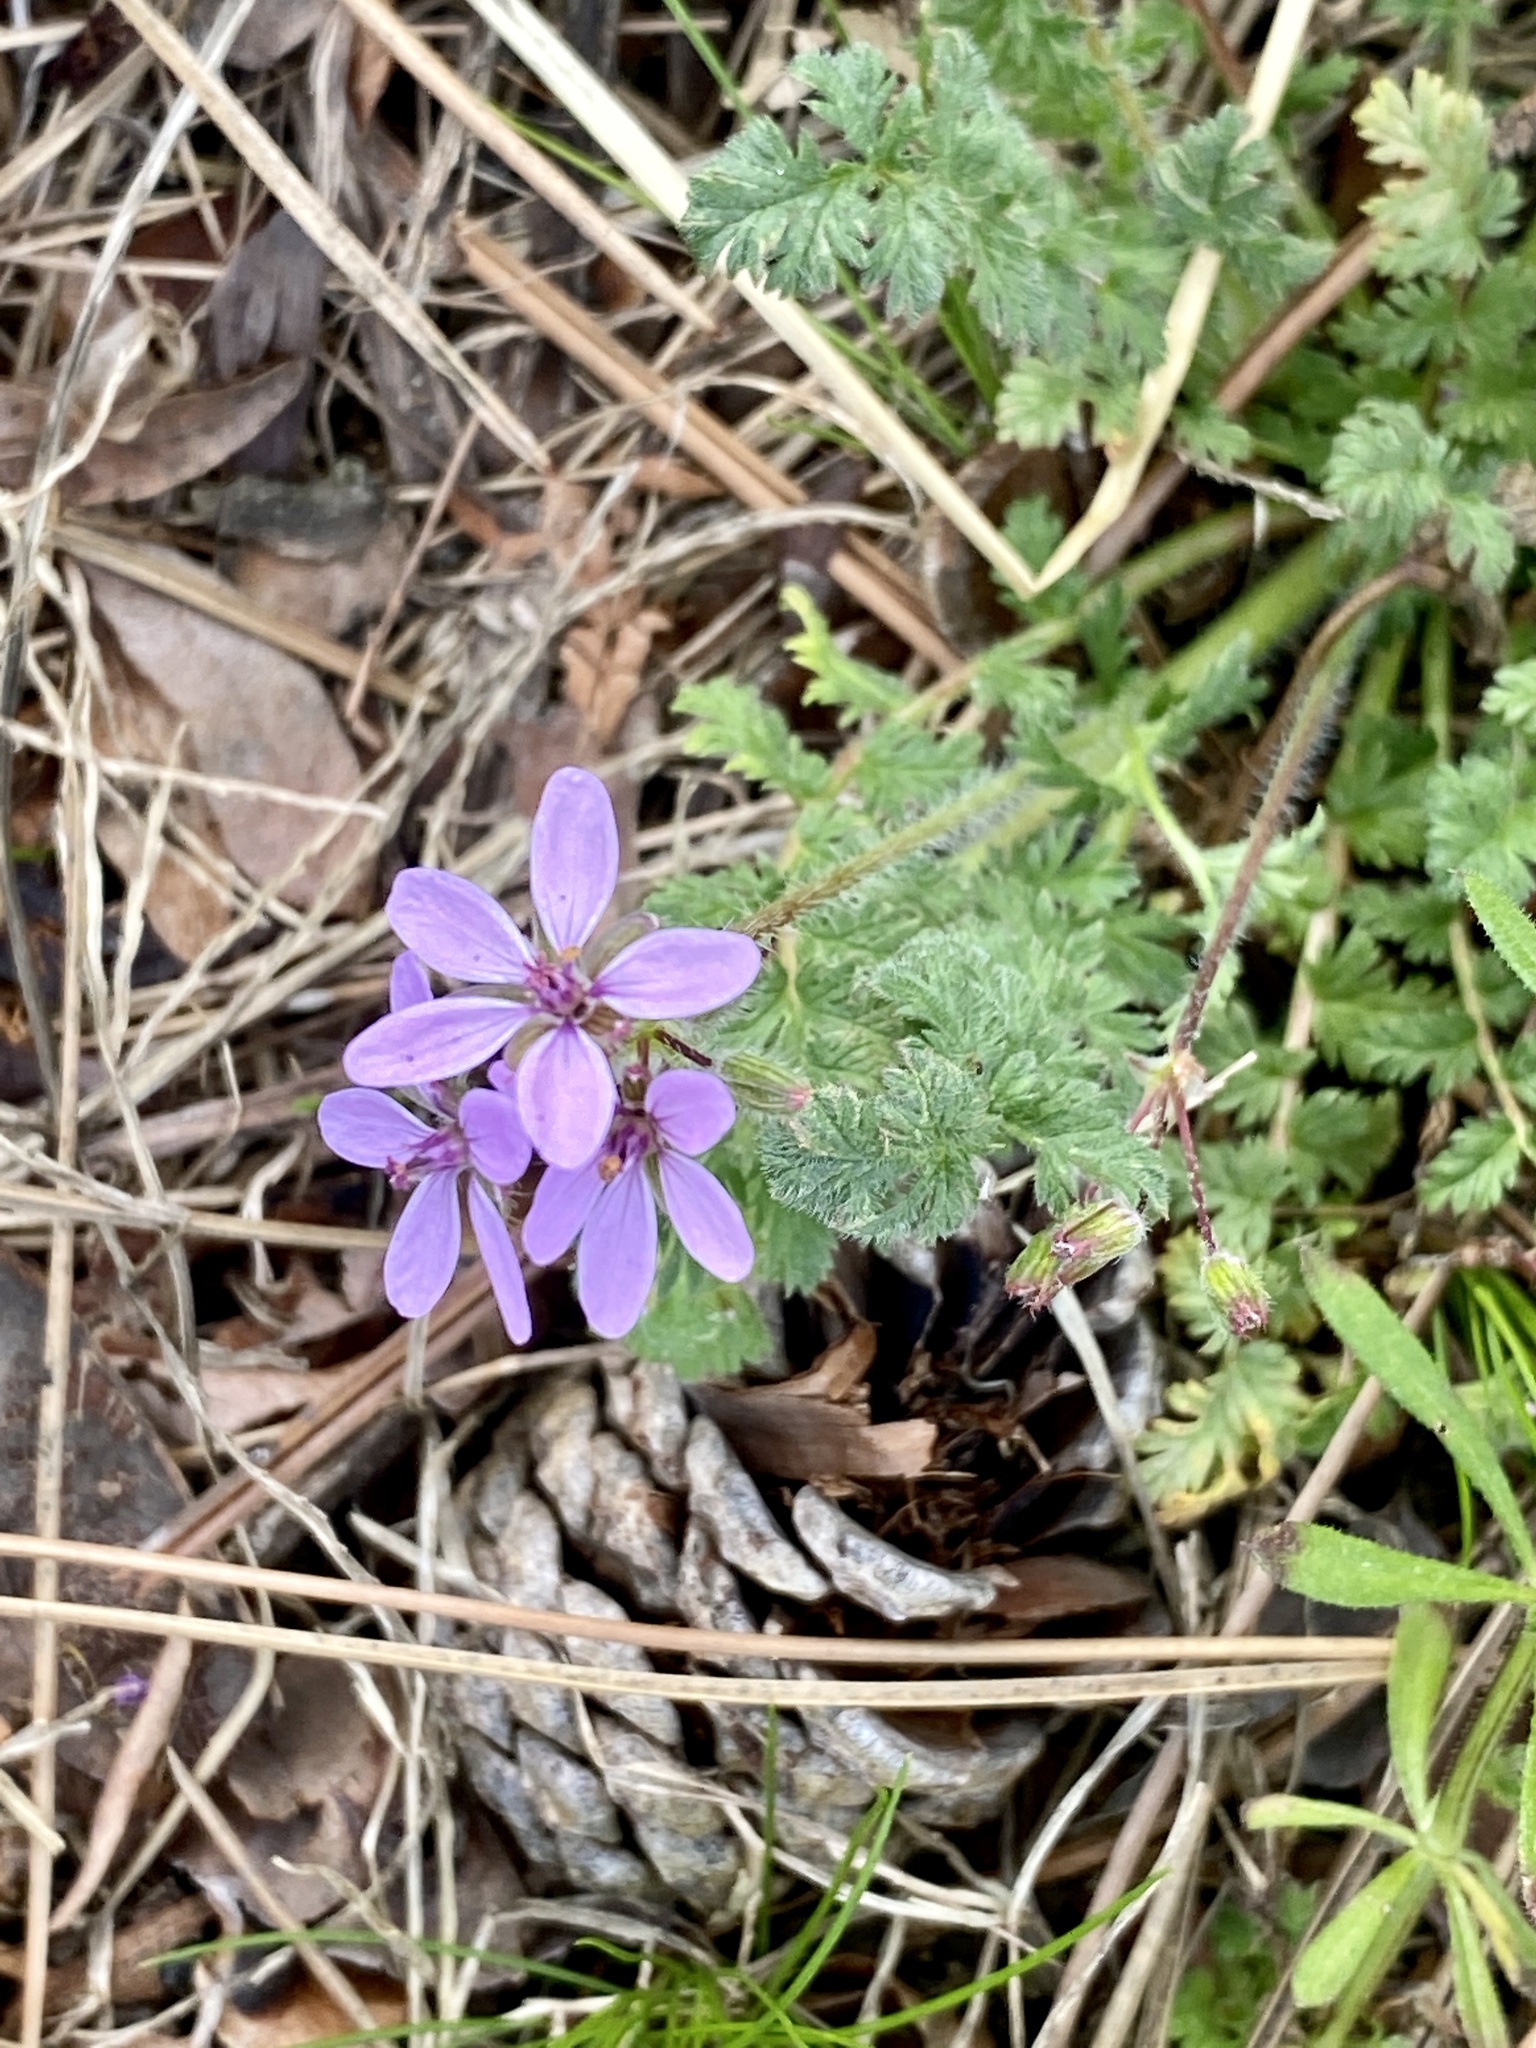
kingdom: Plantae
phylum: Tracheophyta
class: Magnoliopsida
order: Geraniales
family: Geraniaceae
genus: Erodium
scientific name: Erodium cicutarium
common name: Common stork's-bill
